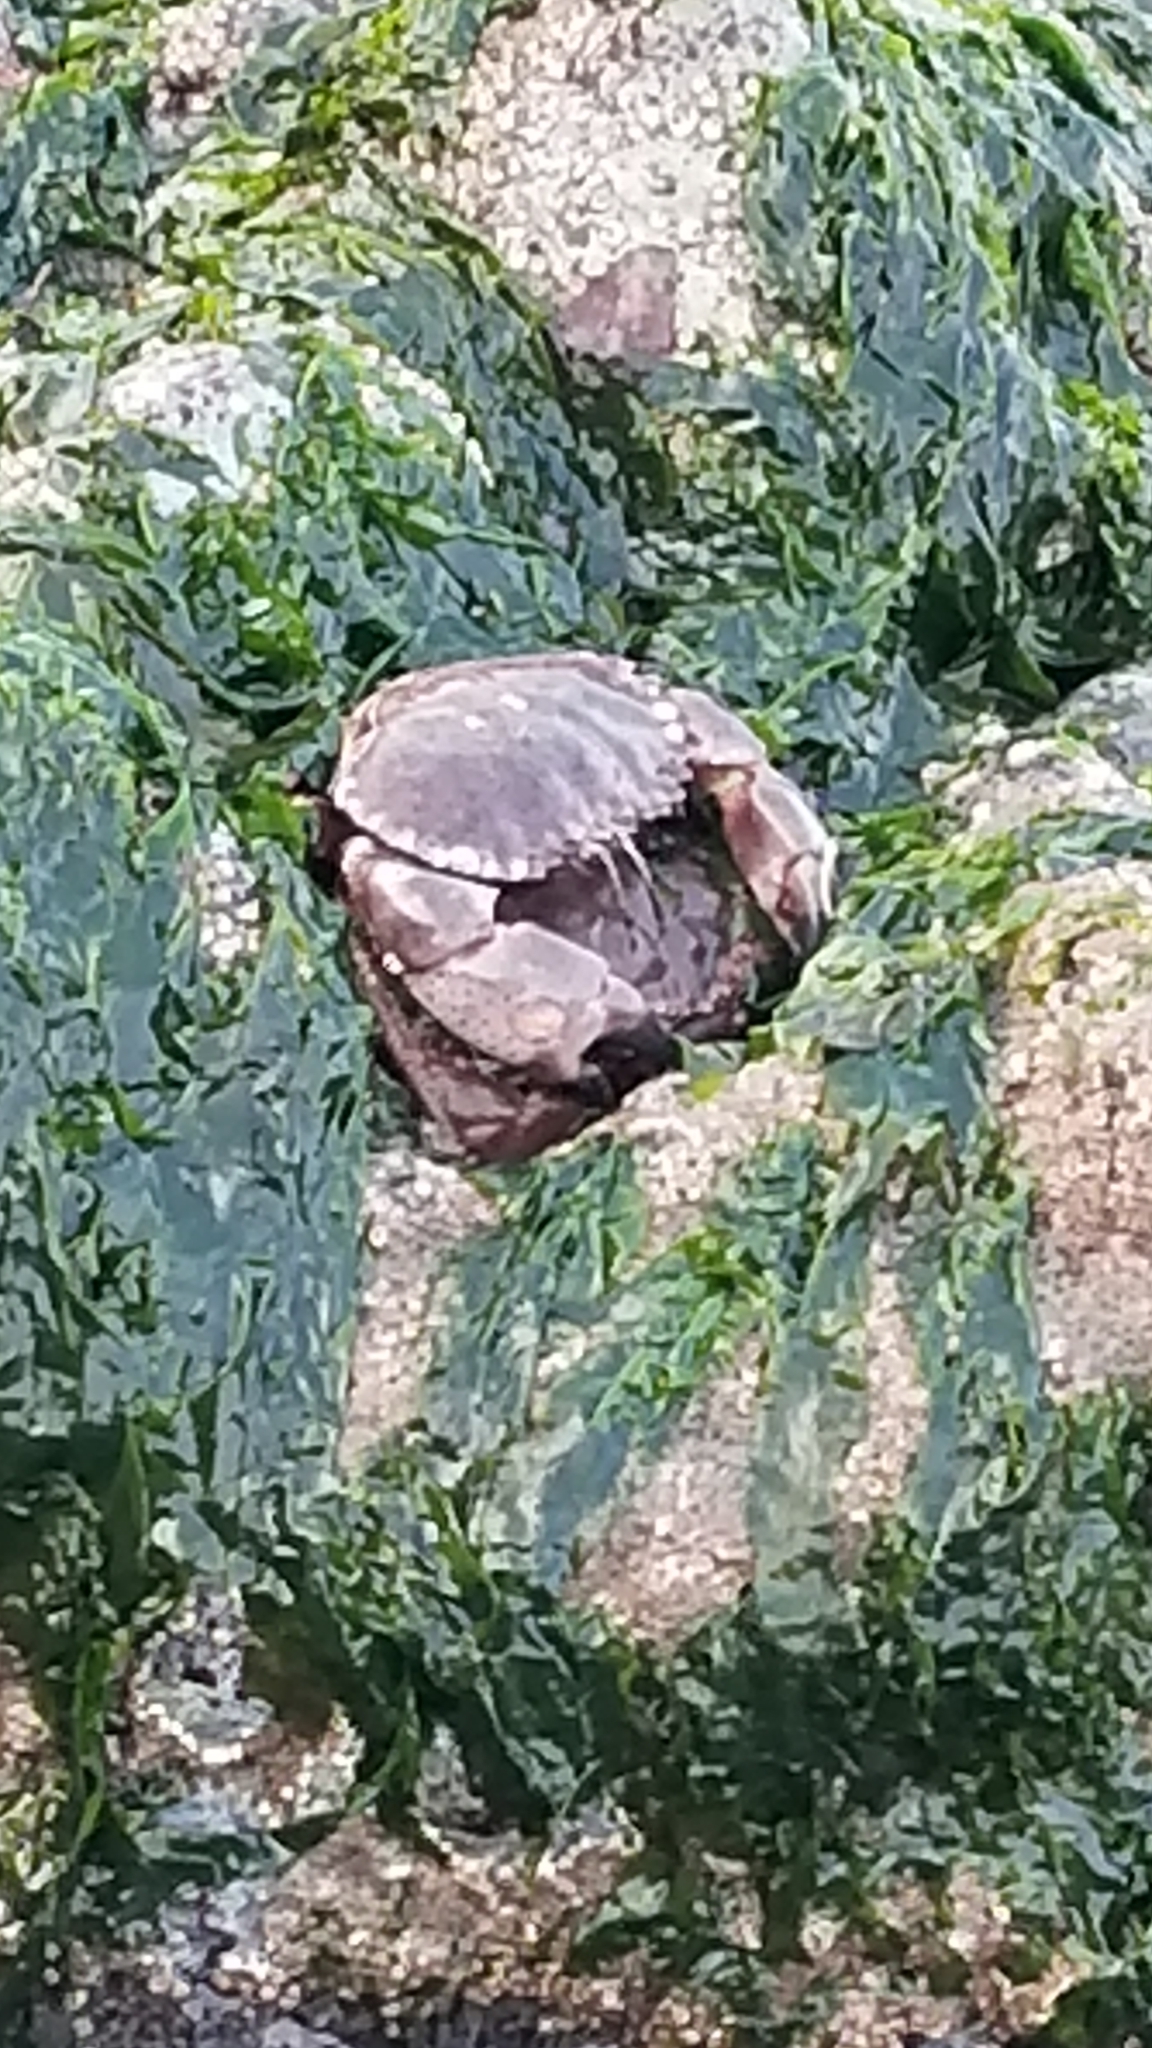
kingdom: Animalia
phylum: Arthropoda
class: Malacostraca
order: Decapoda
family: Cancridae
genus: Romaleon
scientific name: Romaleon antennarium
